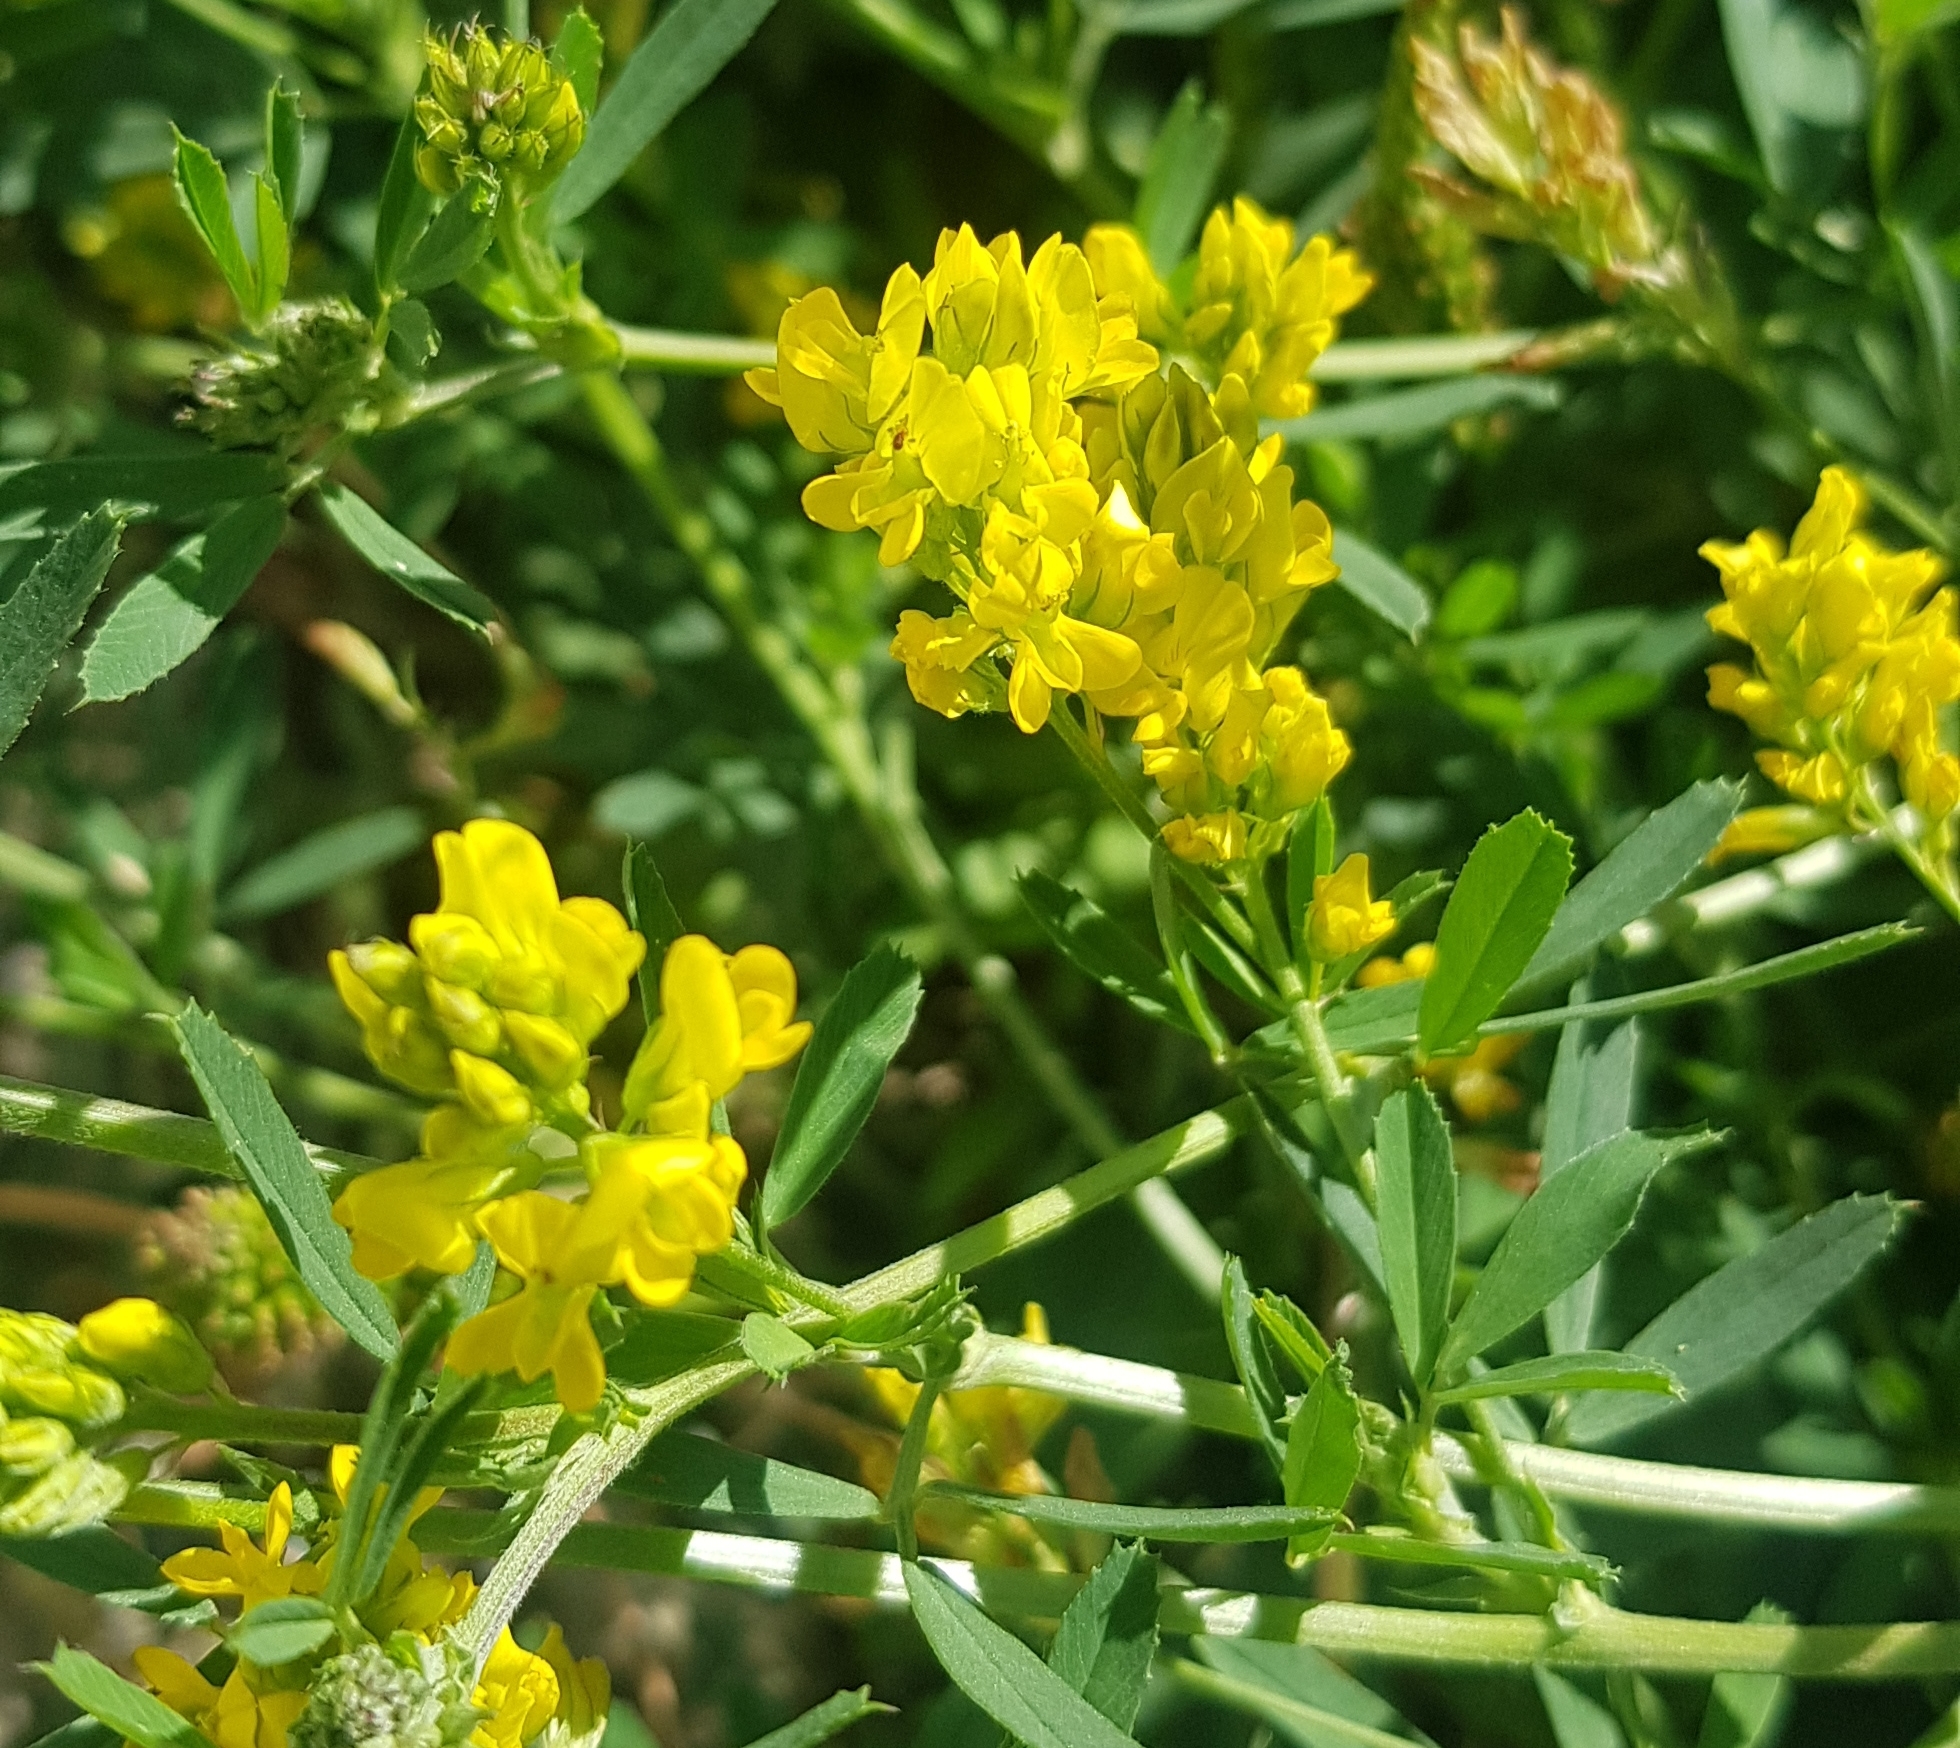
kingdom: Plantae
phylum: Tracheophyta
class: Magnoliopsida
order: Fabales
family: Fabaceae
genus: Medicago
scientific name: Medicago falcata
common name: Sickle medick
